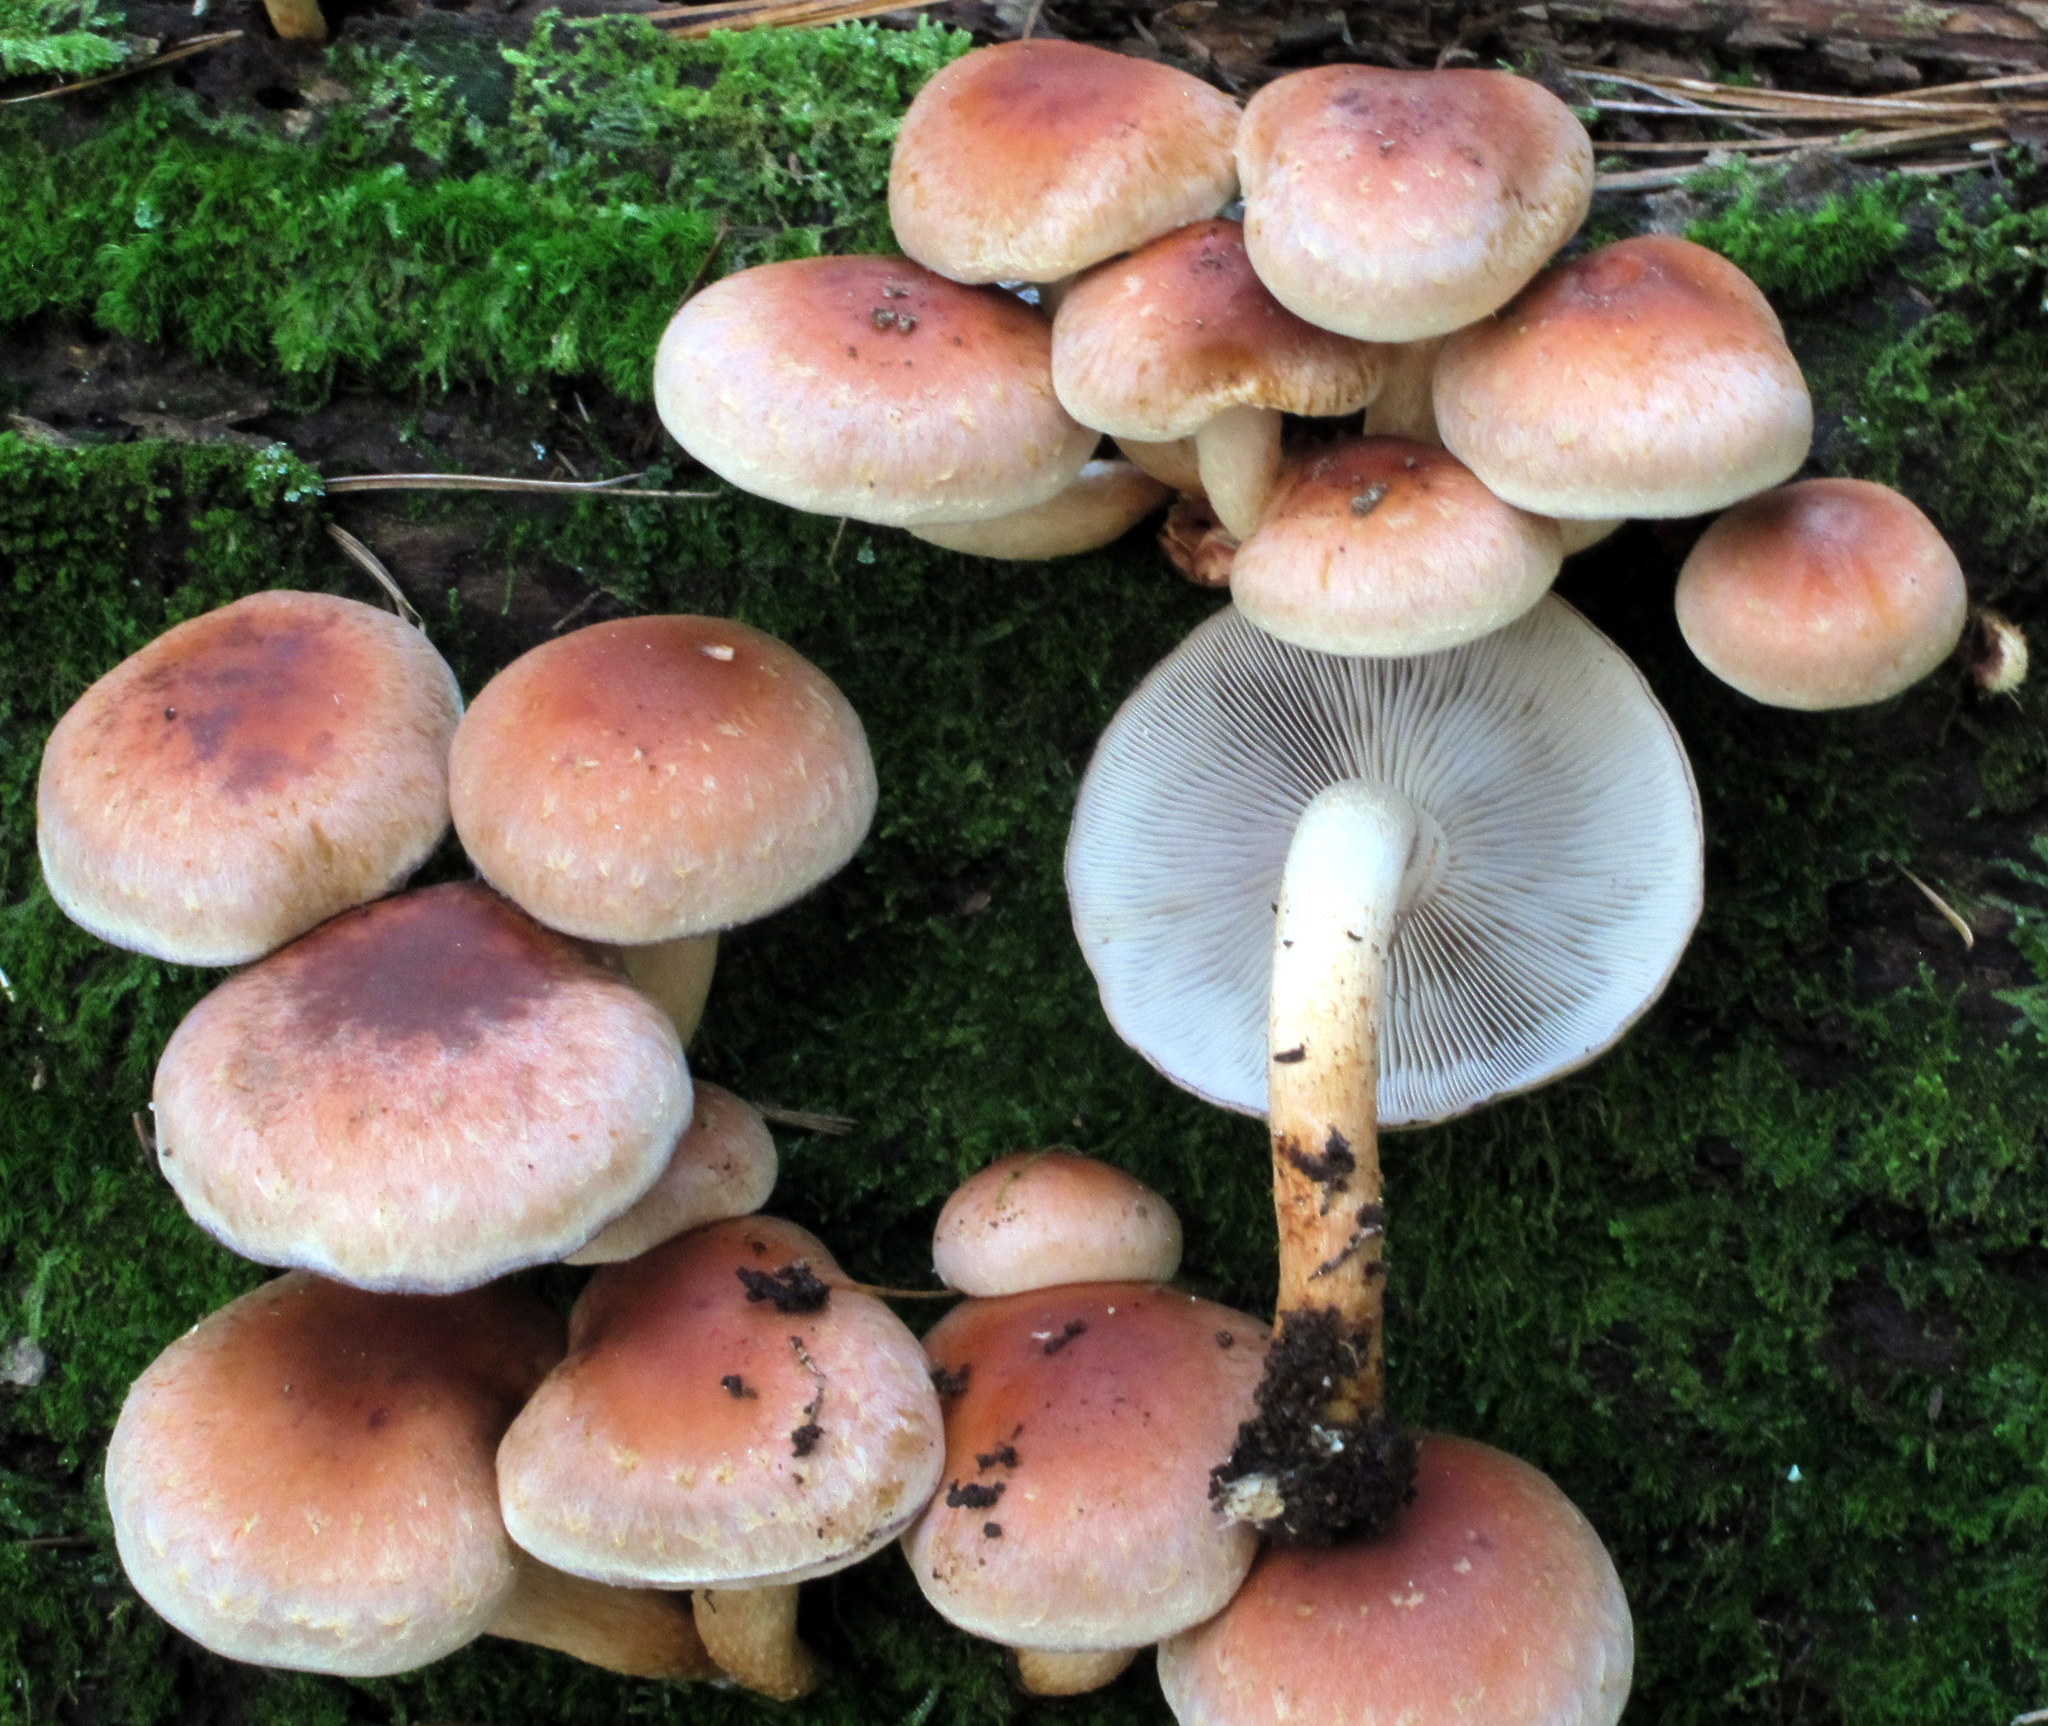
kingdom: Fungi
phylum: Basidiomycota
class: Agaricomycetes
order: Agaricales
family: Strophariaceae
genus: Hypholoma
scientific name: Hypholoma lateritium
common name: Brick caps
